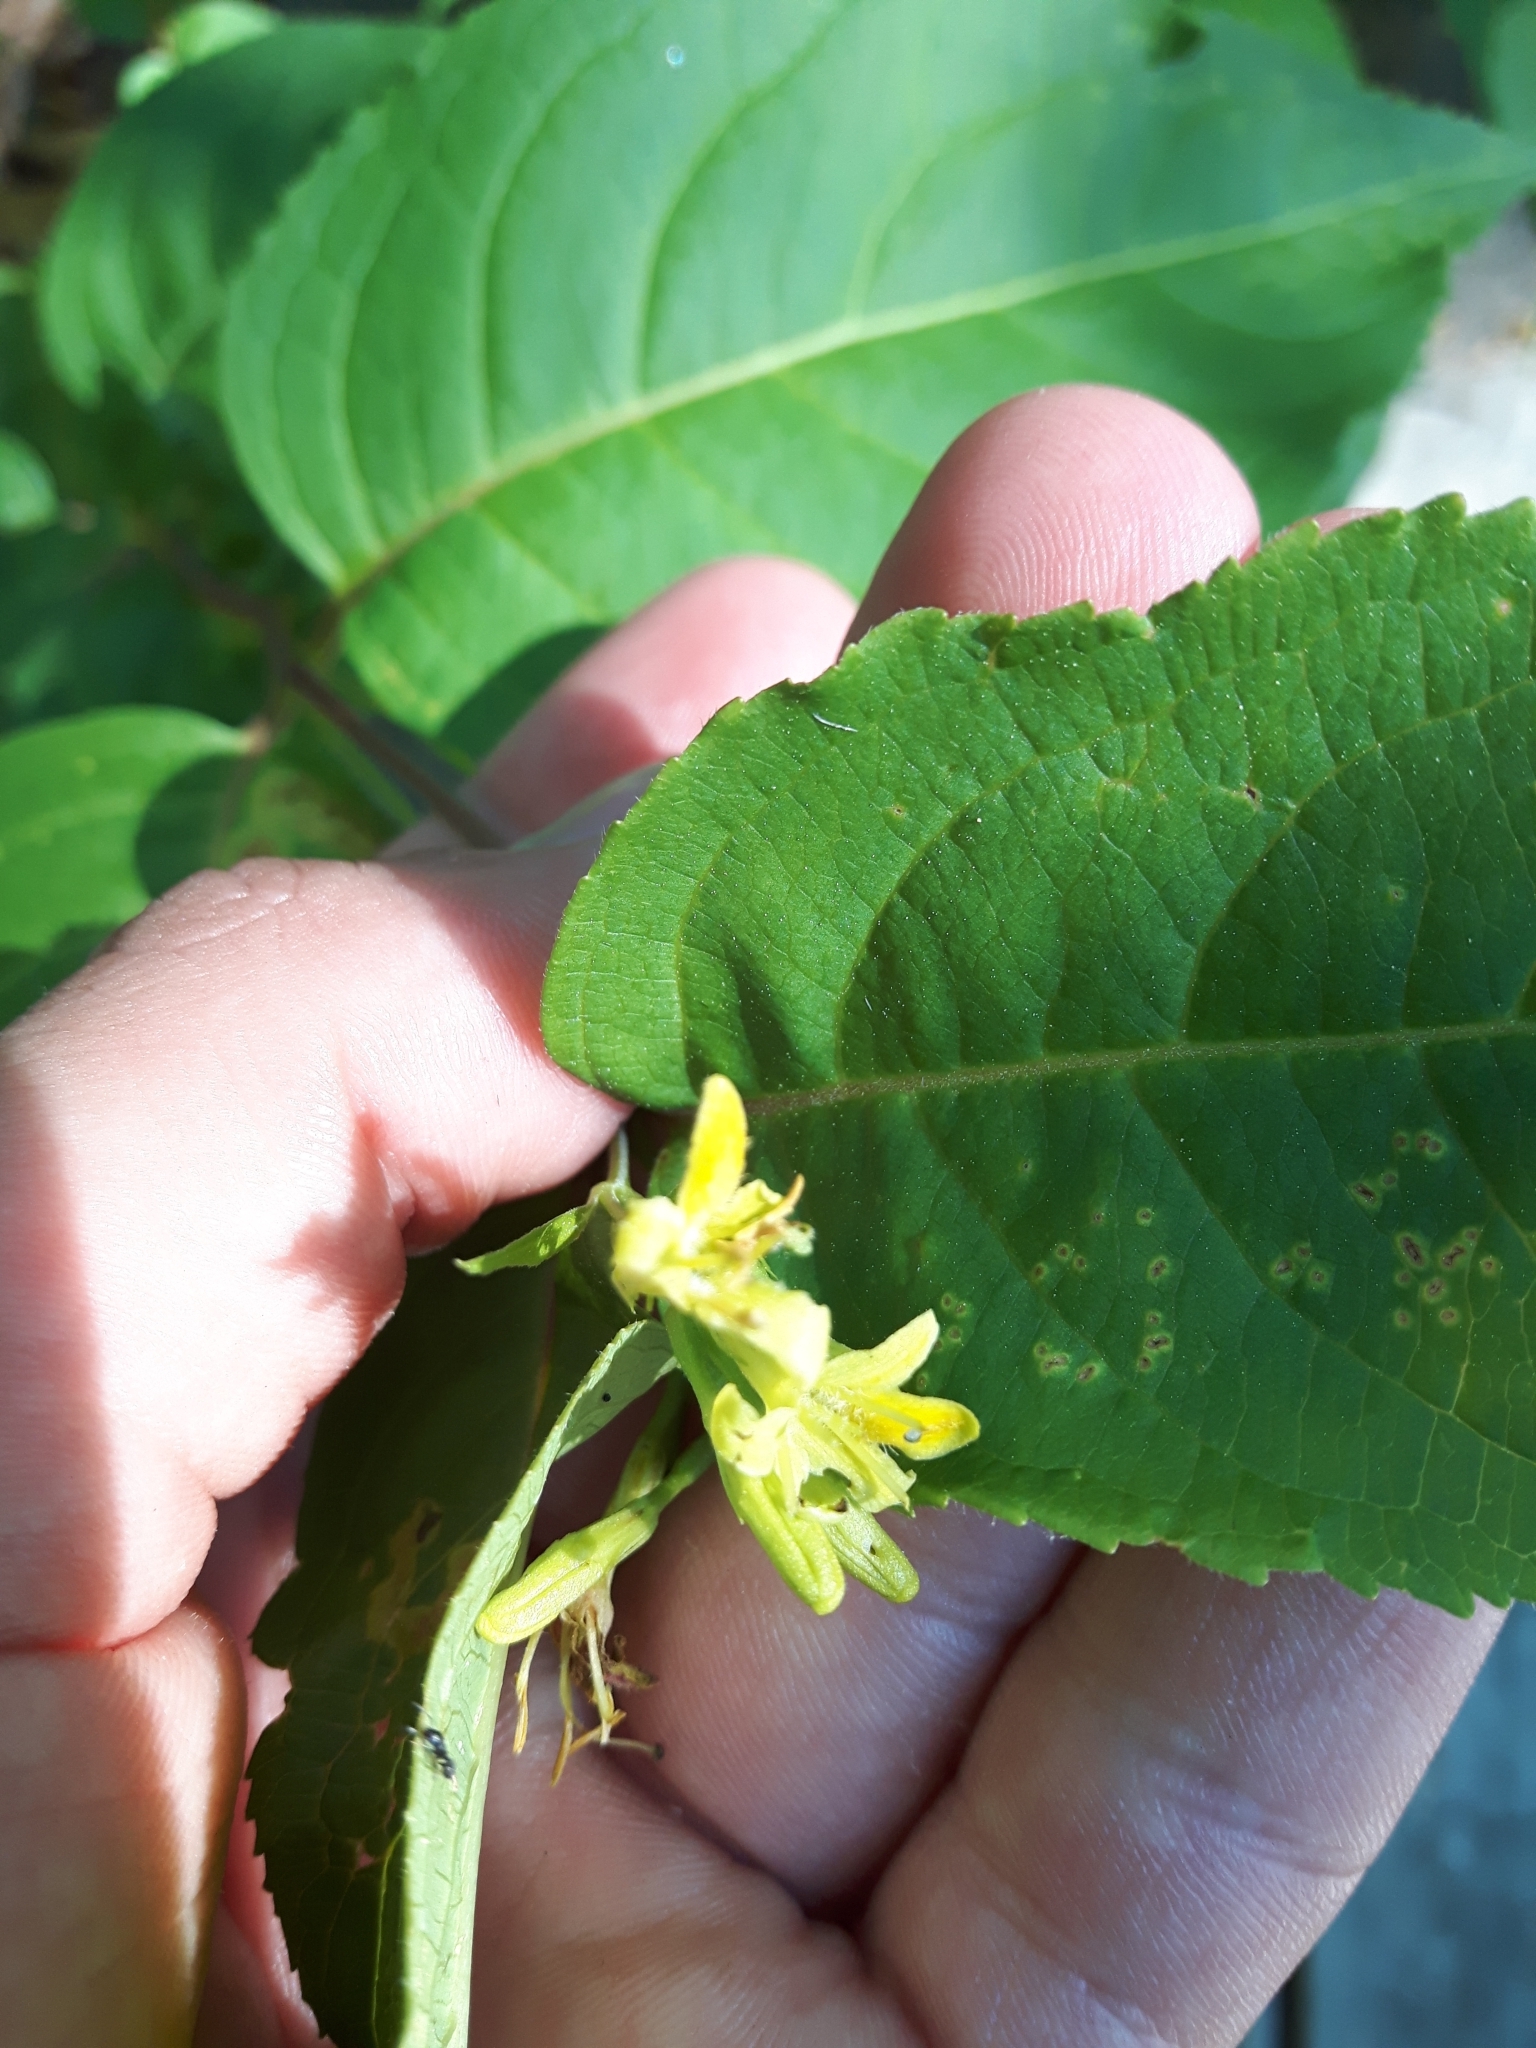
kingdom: Plantae
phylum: Tracheophyta
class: Magnoliopsida
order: Dipsacales
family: Caprifoliaceae
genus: Diervilla
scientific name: Diervilla lonicera
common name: Bush-honeysuckle
